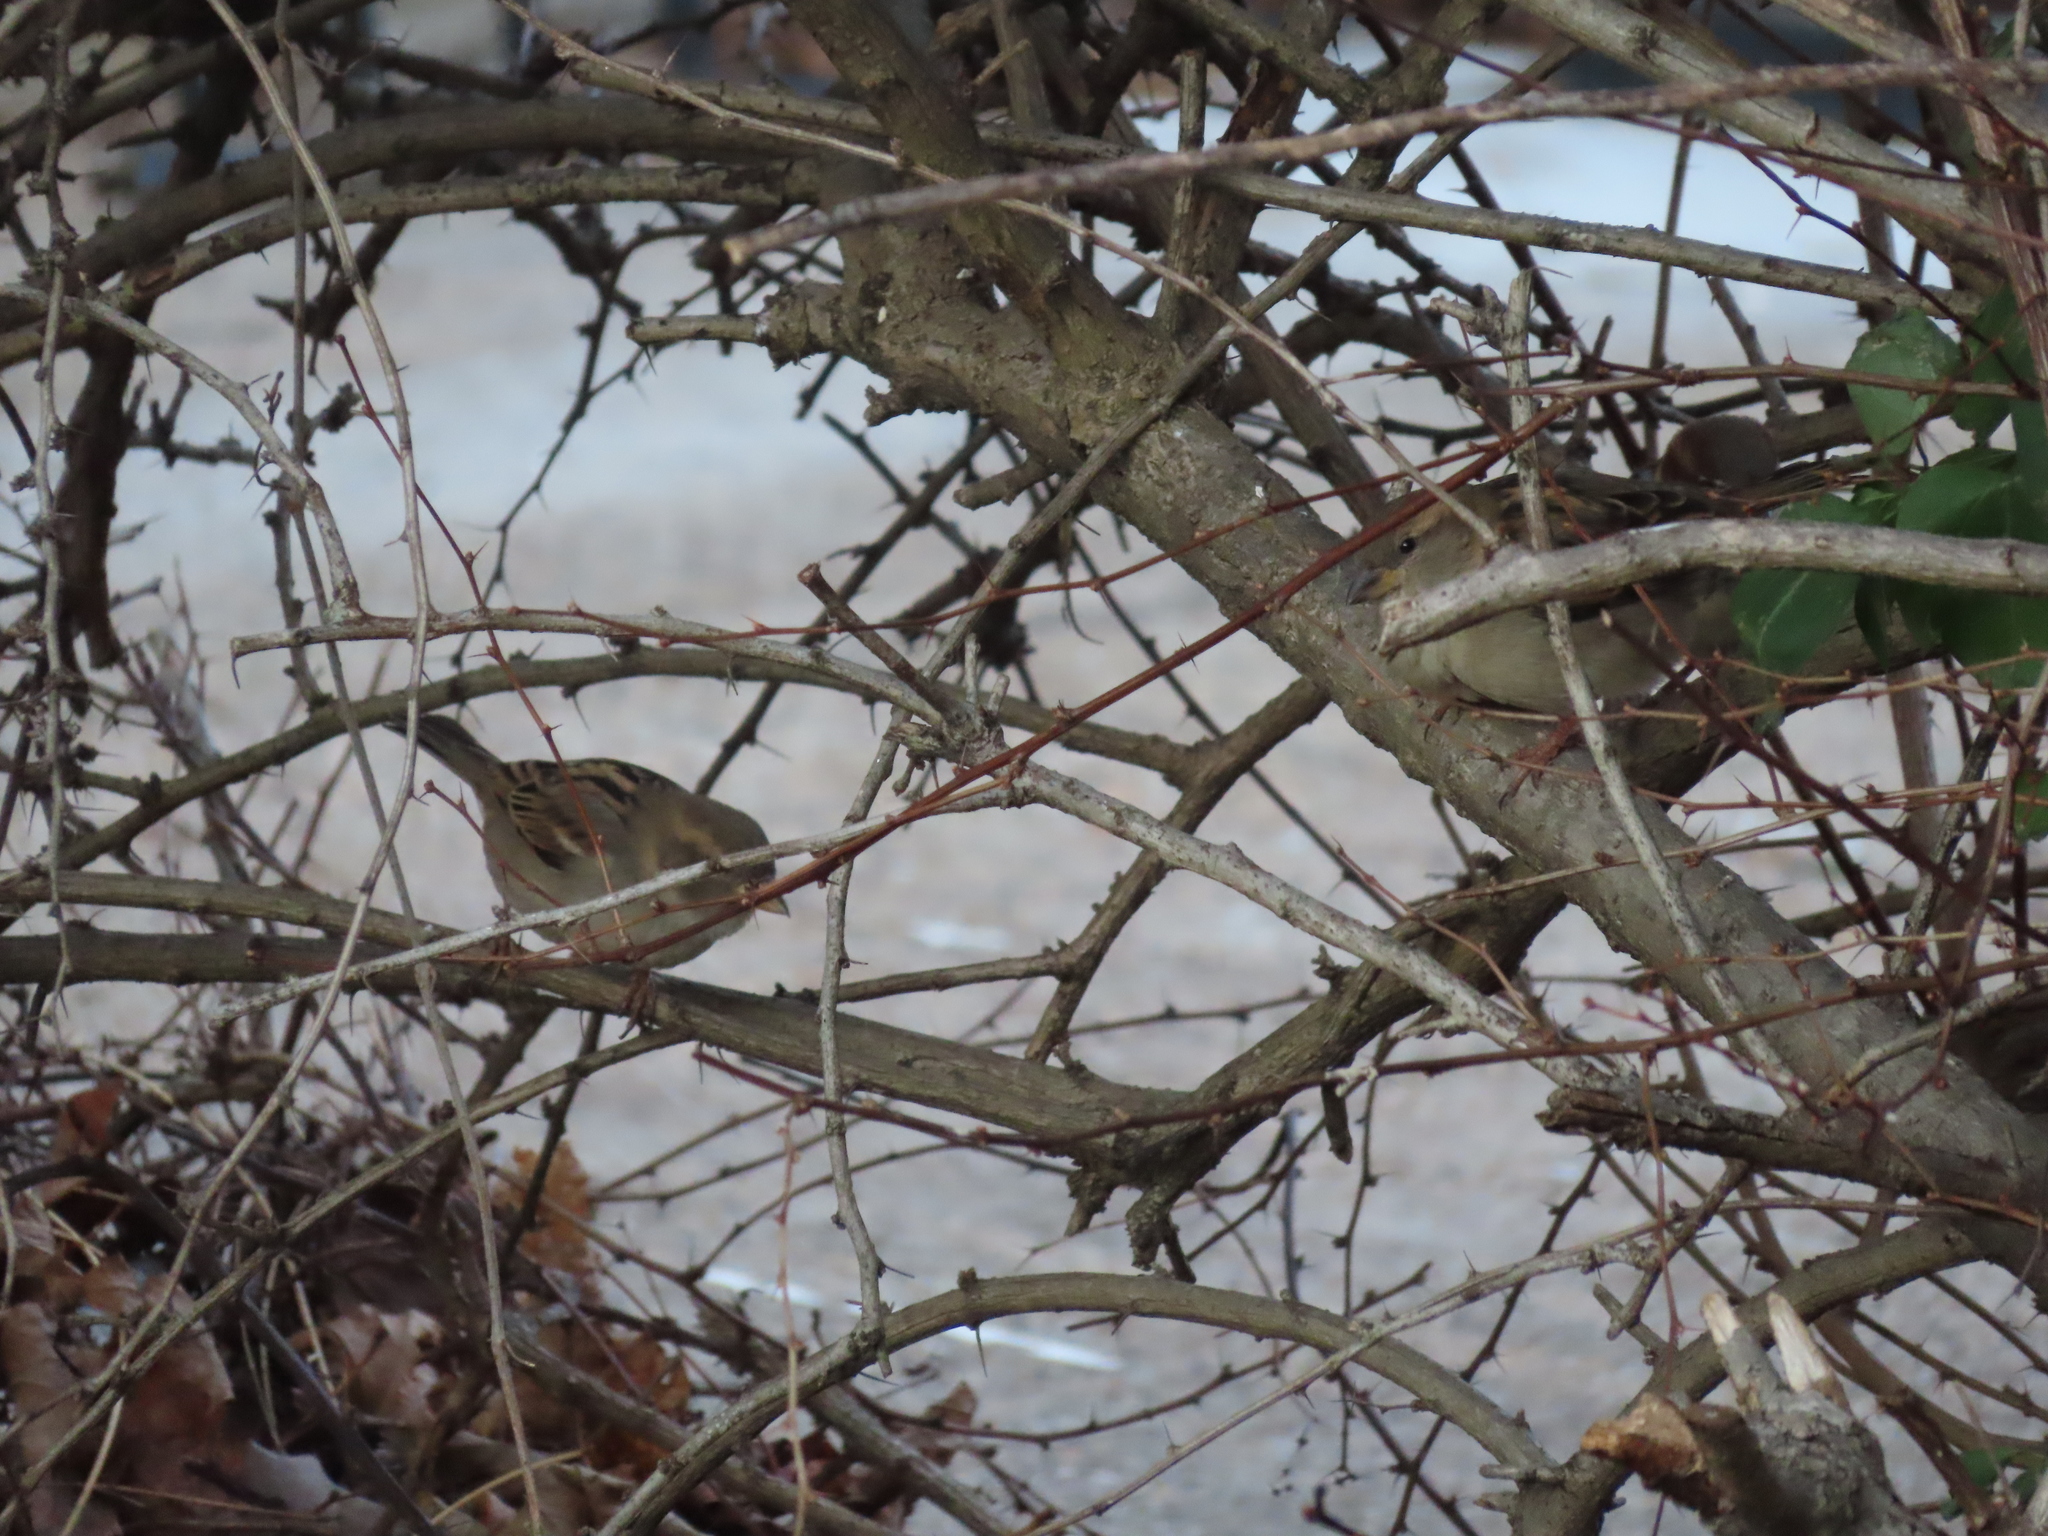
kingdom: Animalia
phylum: Chordata
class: Aves
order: Passeriformes
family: Passeridae
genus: Passer
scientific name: Passer domesticus
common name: House sparrow
